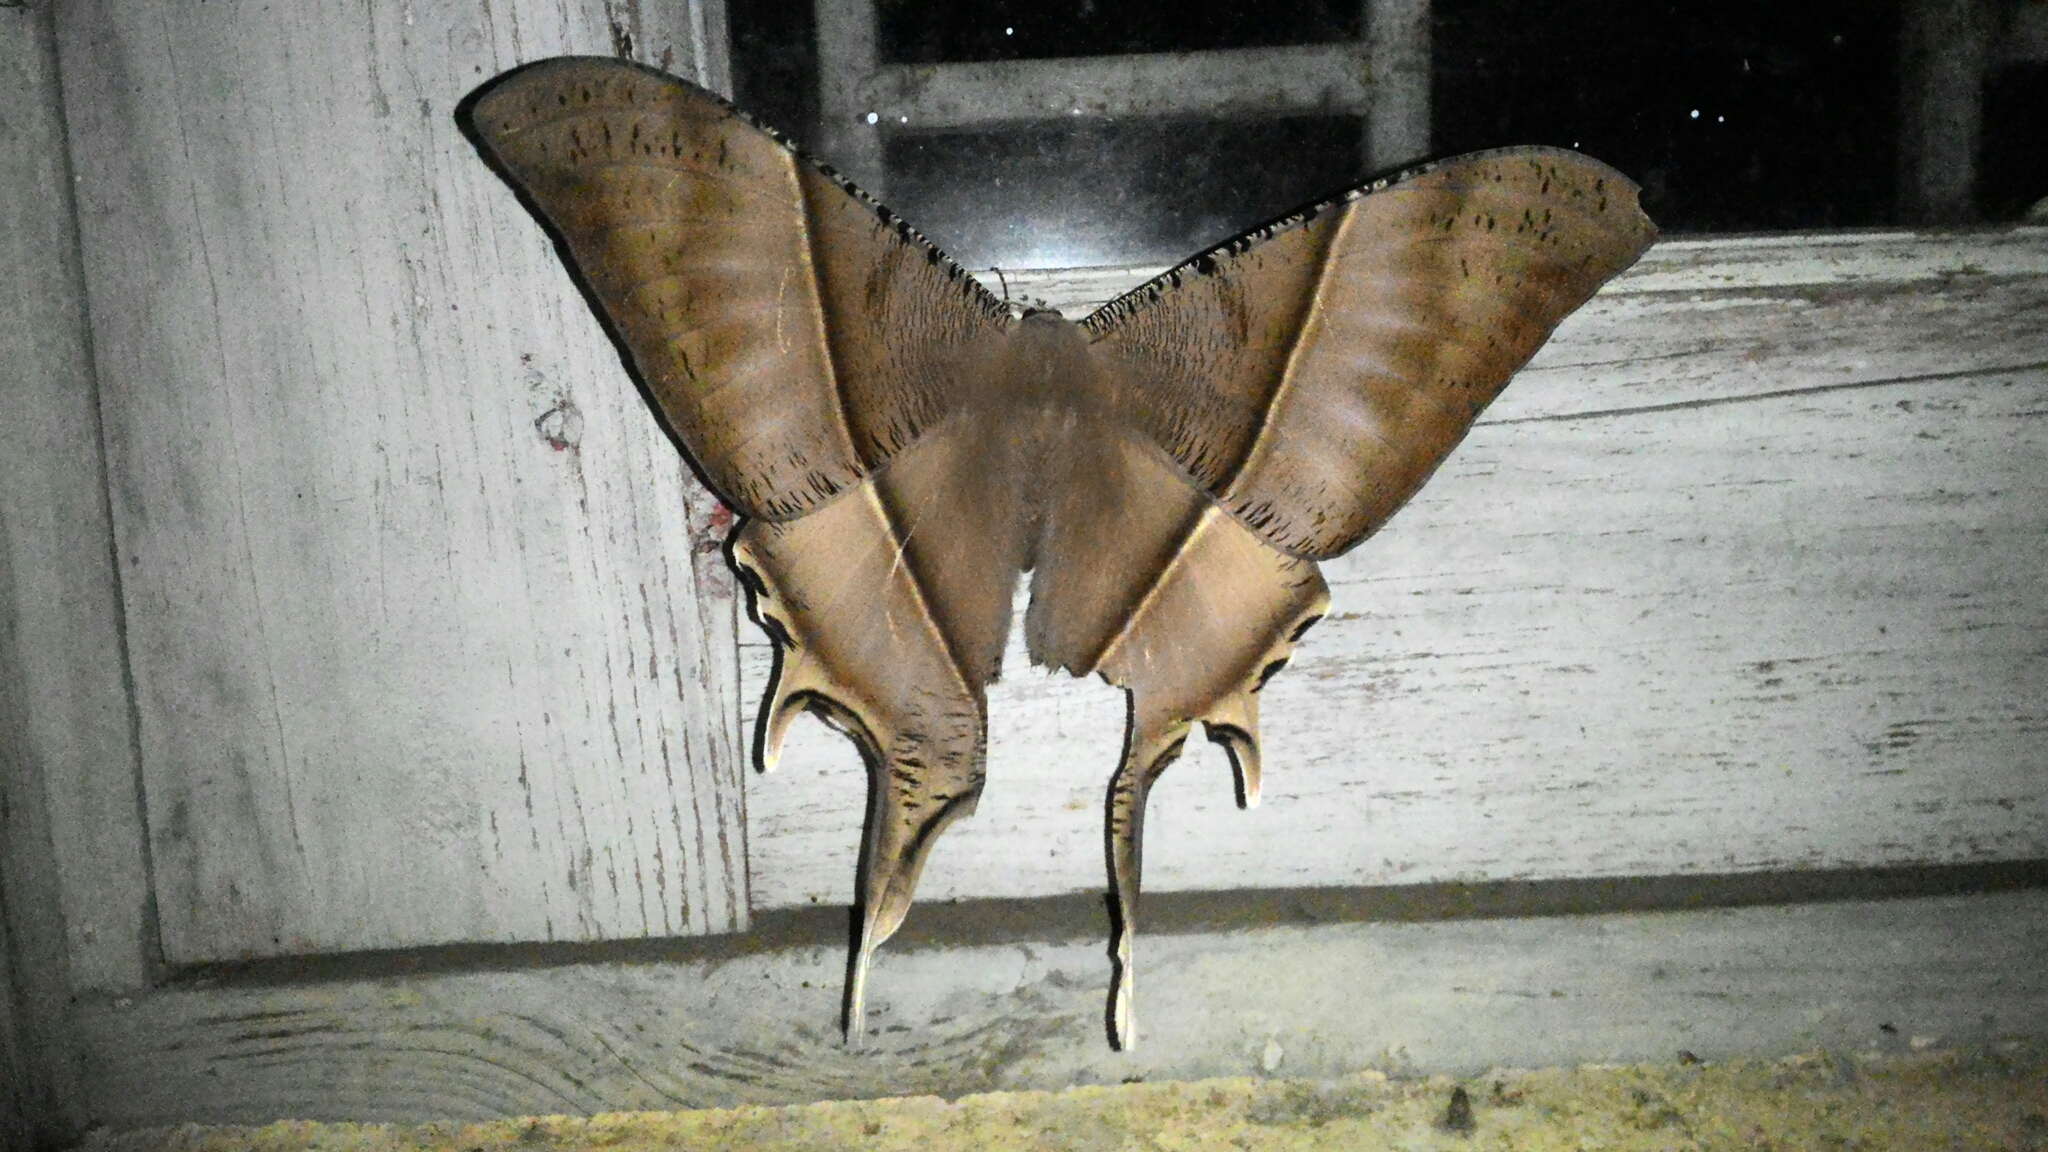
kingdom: Animalia
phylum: Arthropoda
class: Insecta
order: Lepidoptera
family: Uraniidae
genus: Lyssa
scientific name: Lyssa zampa
